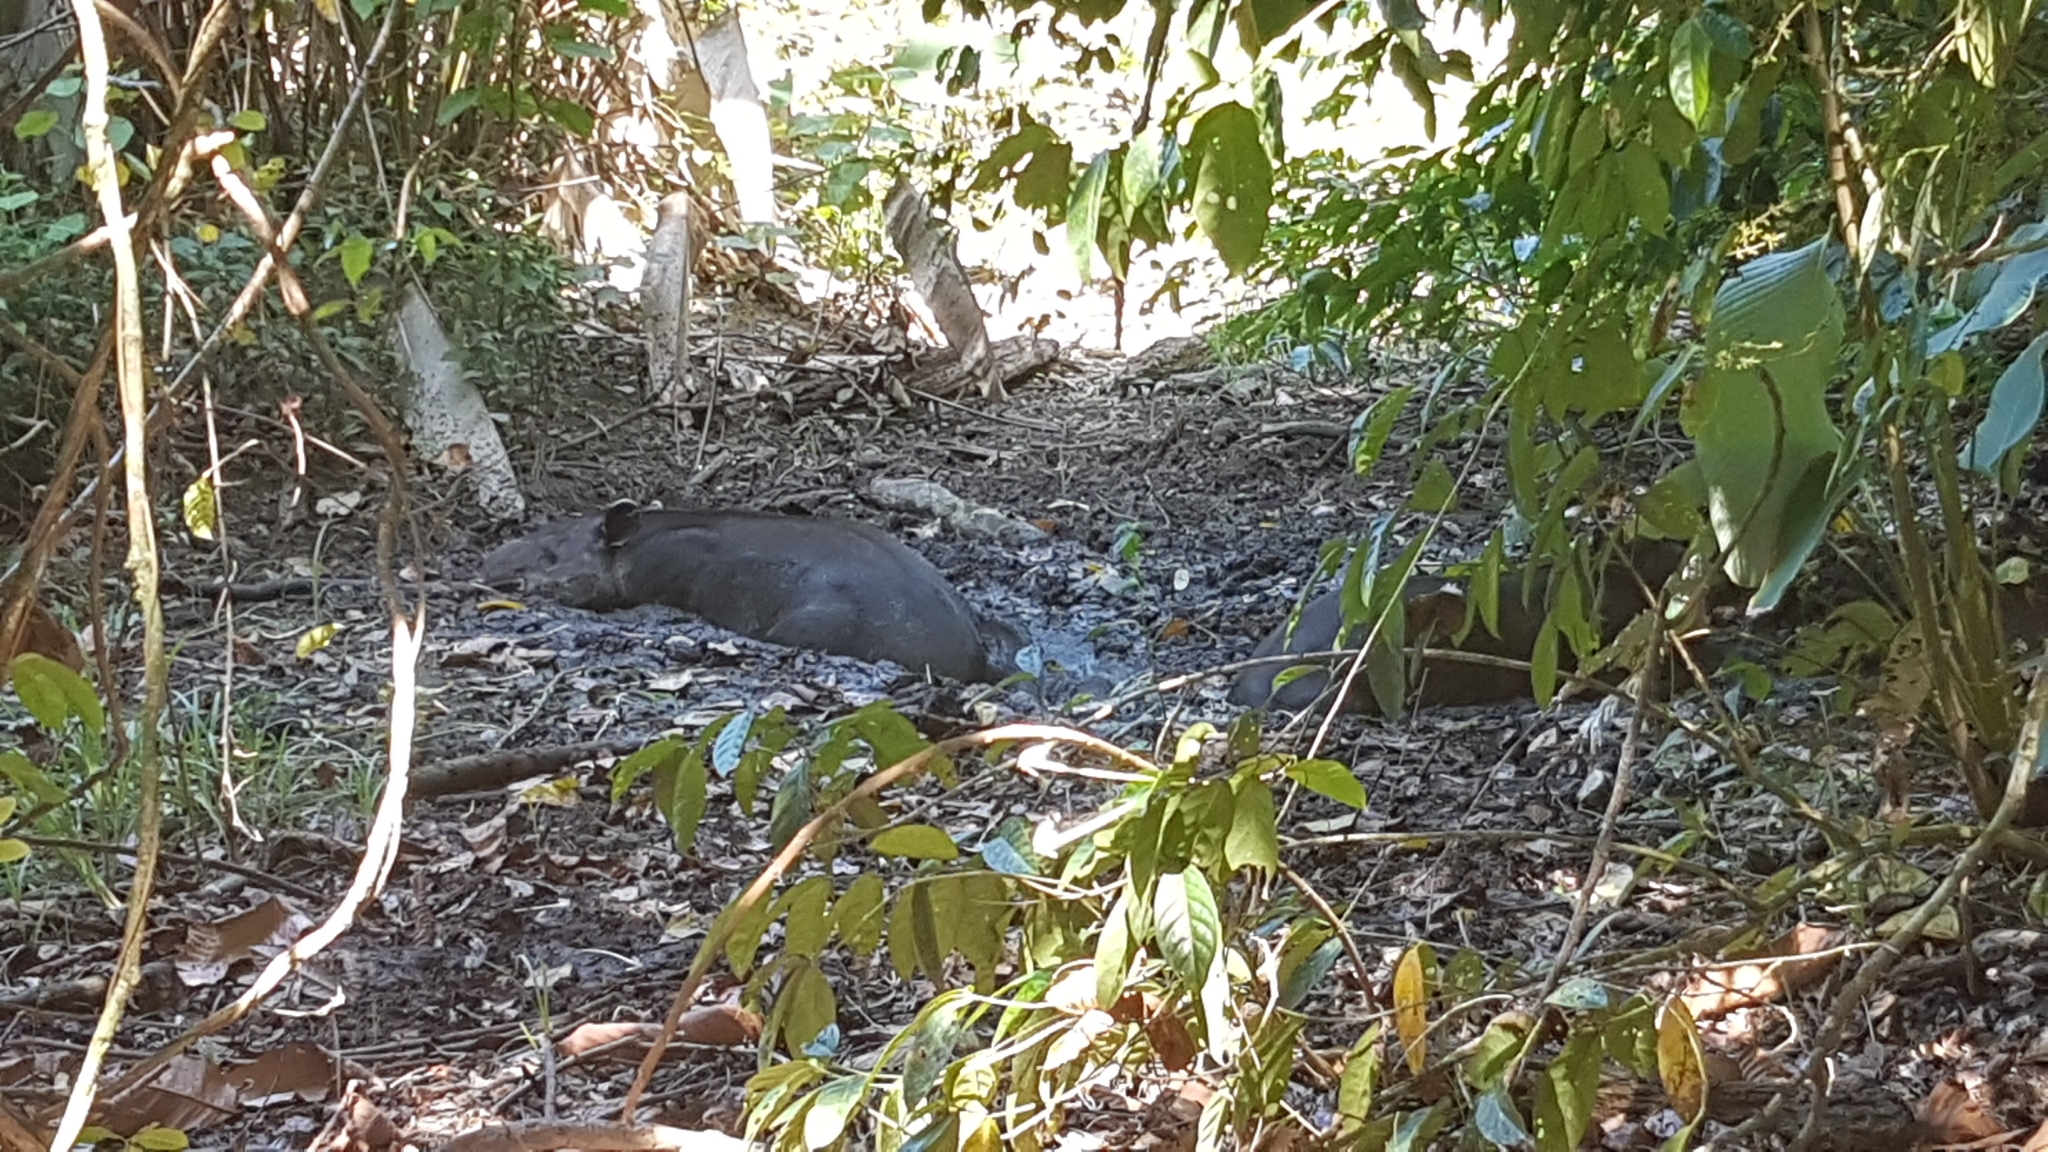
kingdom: Animalia
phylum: Chordata
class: Mammalia
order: Perissodactyla
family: Tapiridae
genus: Tapirella
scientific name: Tapirella bairdii
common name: Baird's tapir
